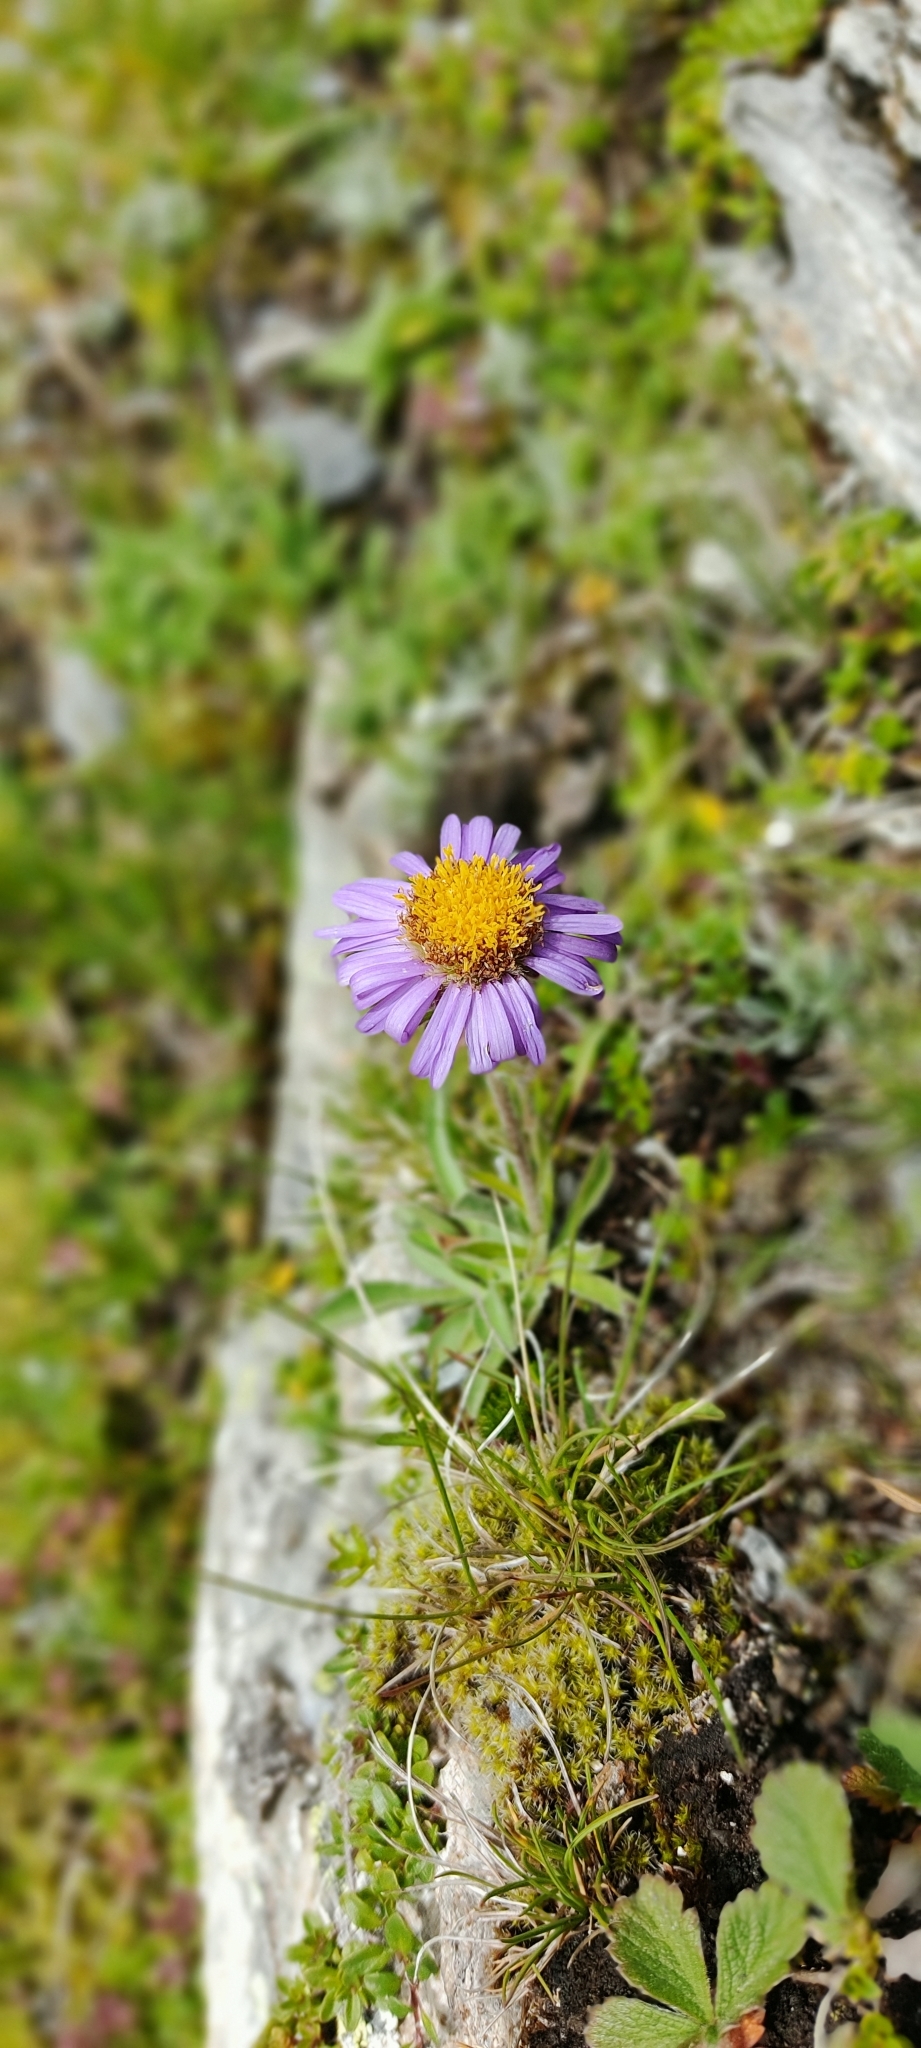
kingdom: Plantae
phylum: Tracheophyta
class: Magnoliopsida
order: Asterales
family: Asteraceae
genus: Aster
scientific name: Aster alpinus
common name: Alpine aster
